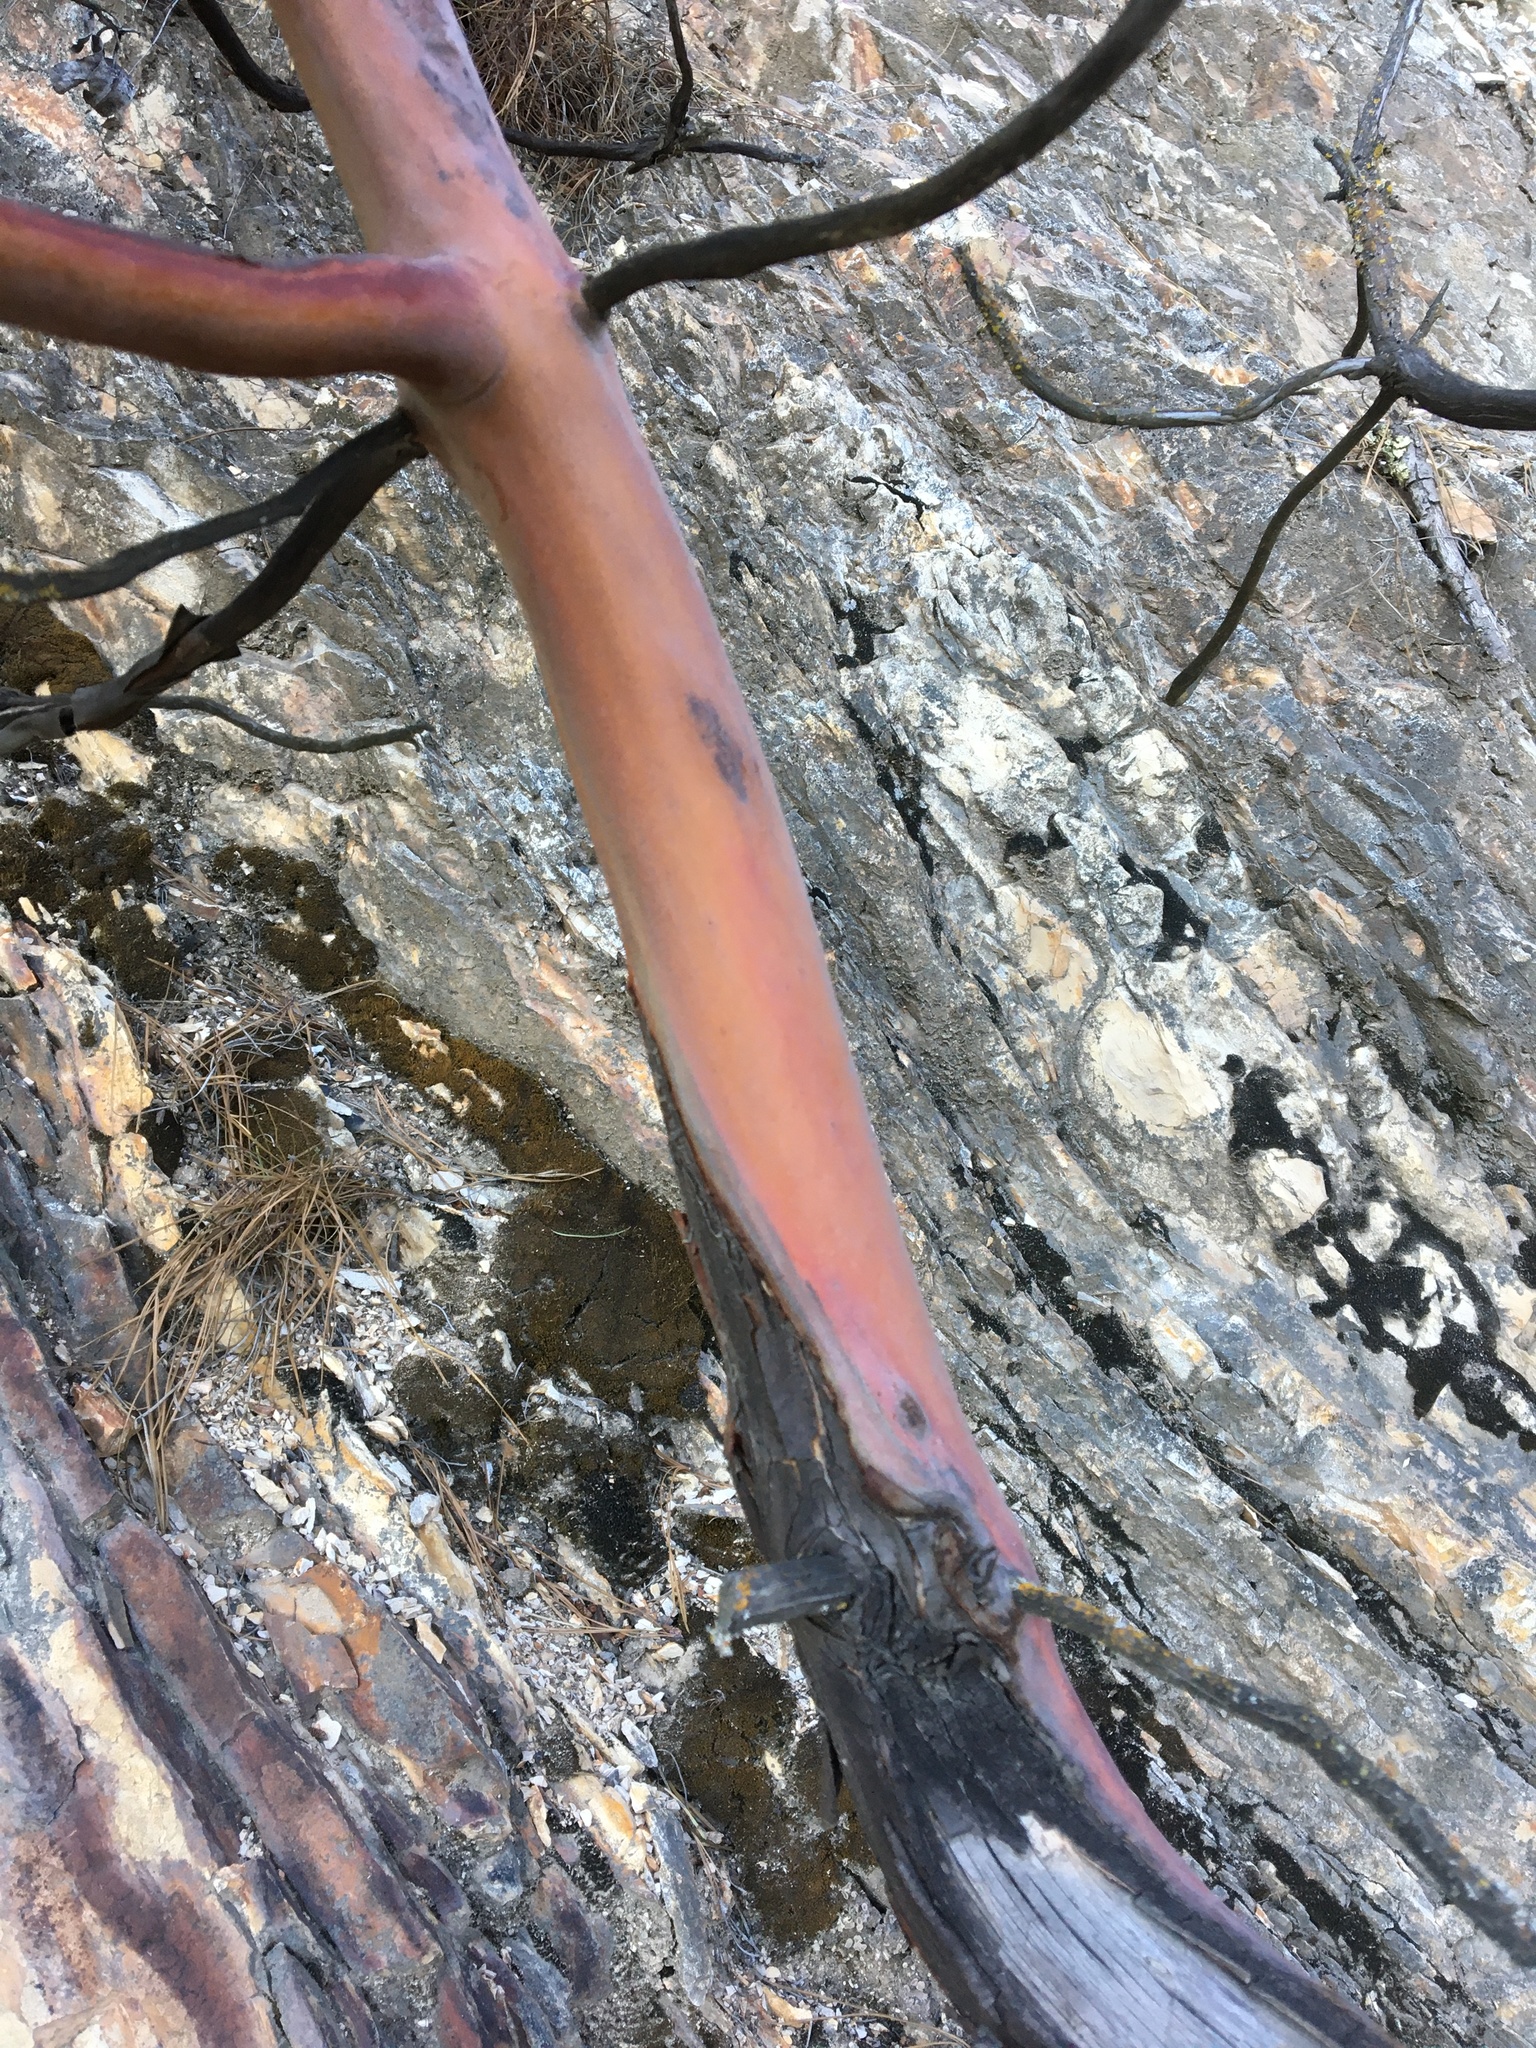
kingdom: Plantae
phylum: Tracheophyta
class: Magnoliopsida
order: Ericales
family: Ericaceae
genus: Arbutus
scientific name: Arbutus menziesii
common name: Pacific madrone
